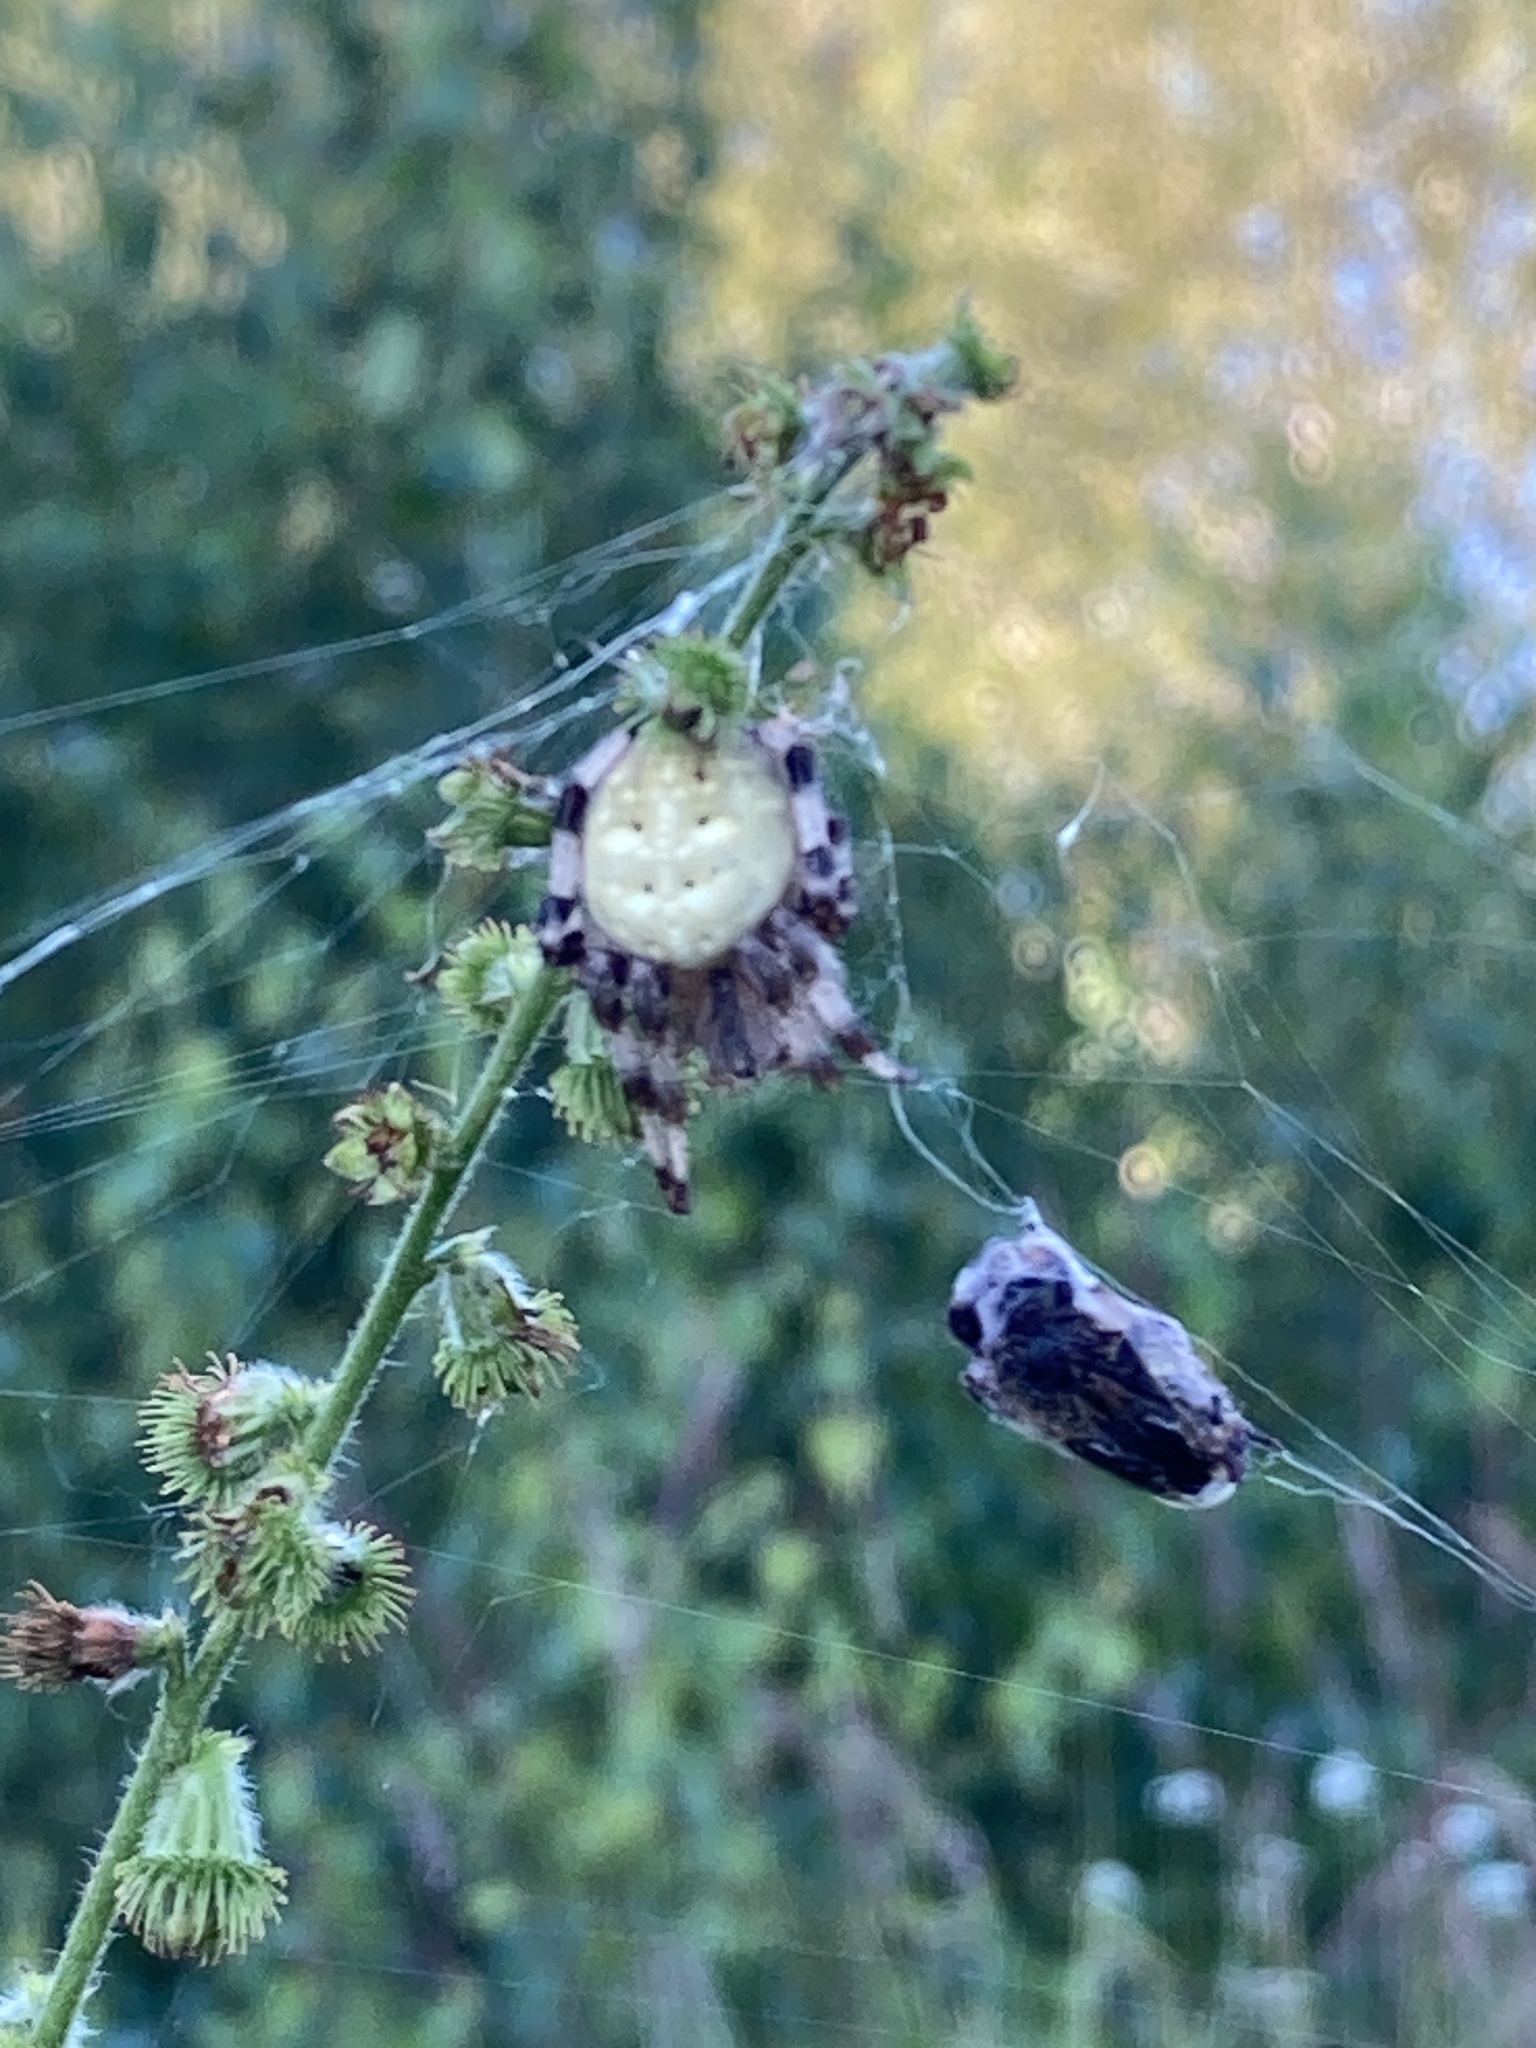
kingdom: Animalia
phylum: Arthropoda
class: Arachnida
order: Araneae
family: Araneidae
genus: Araneus
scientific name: Araneus quadratus
